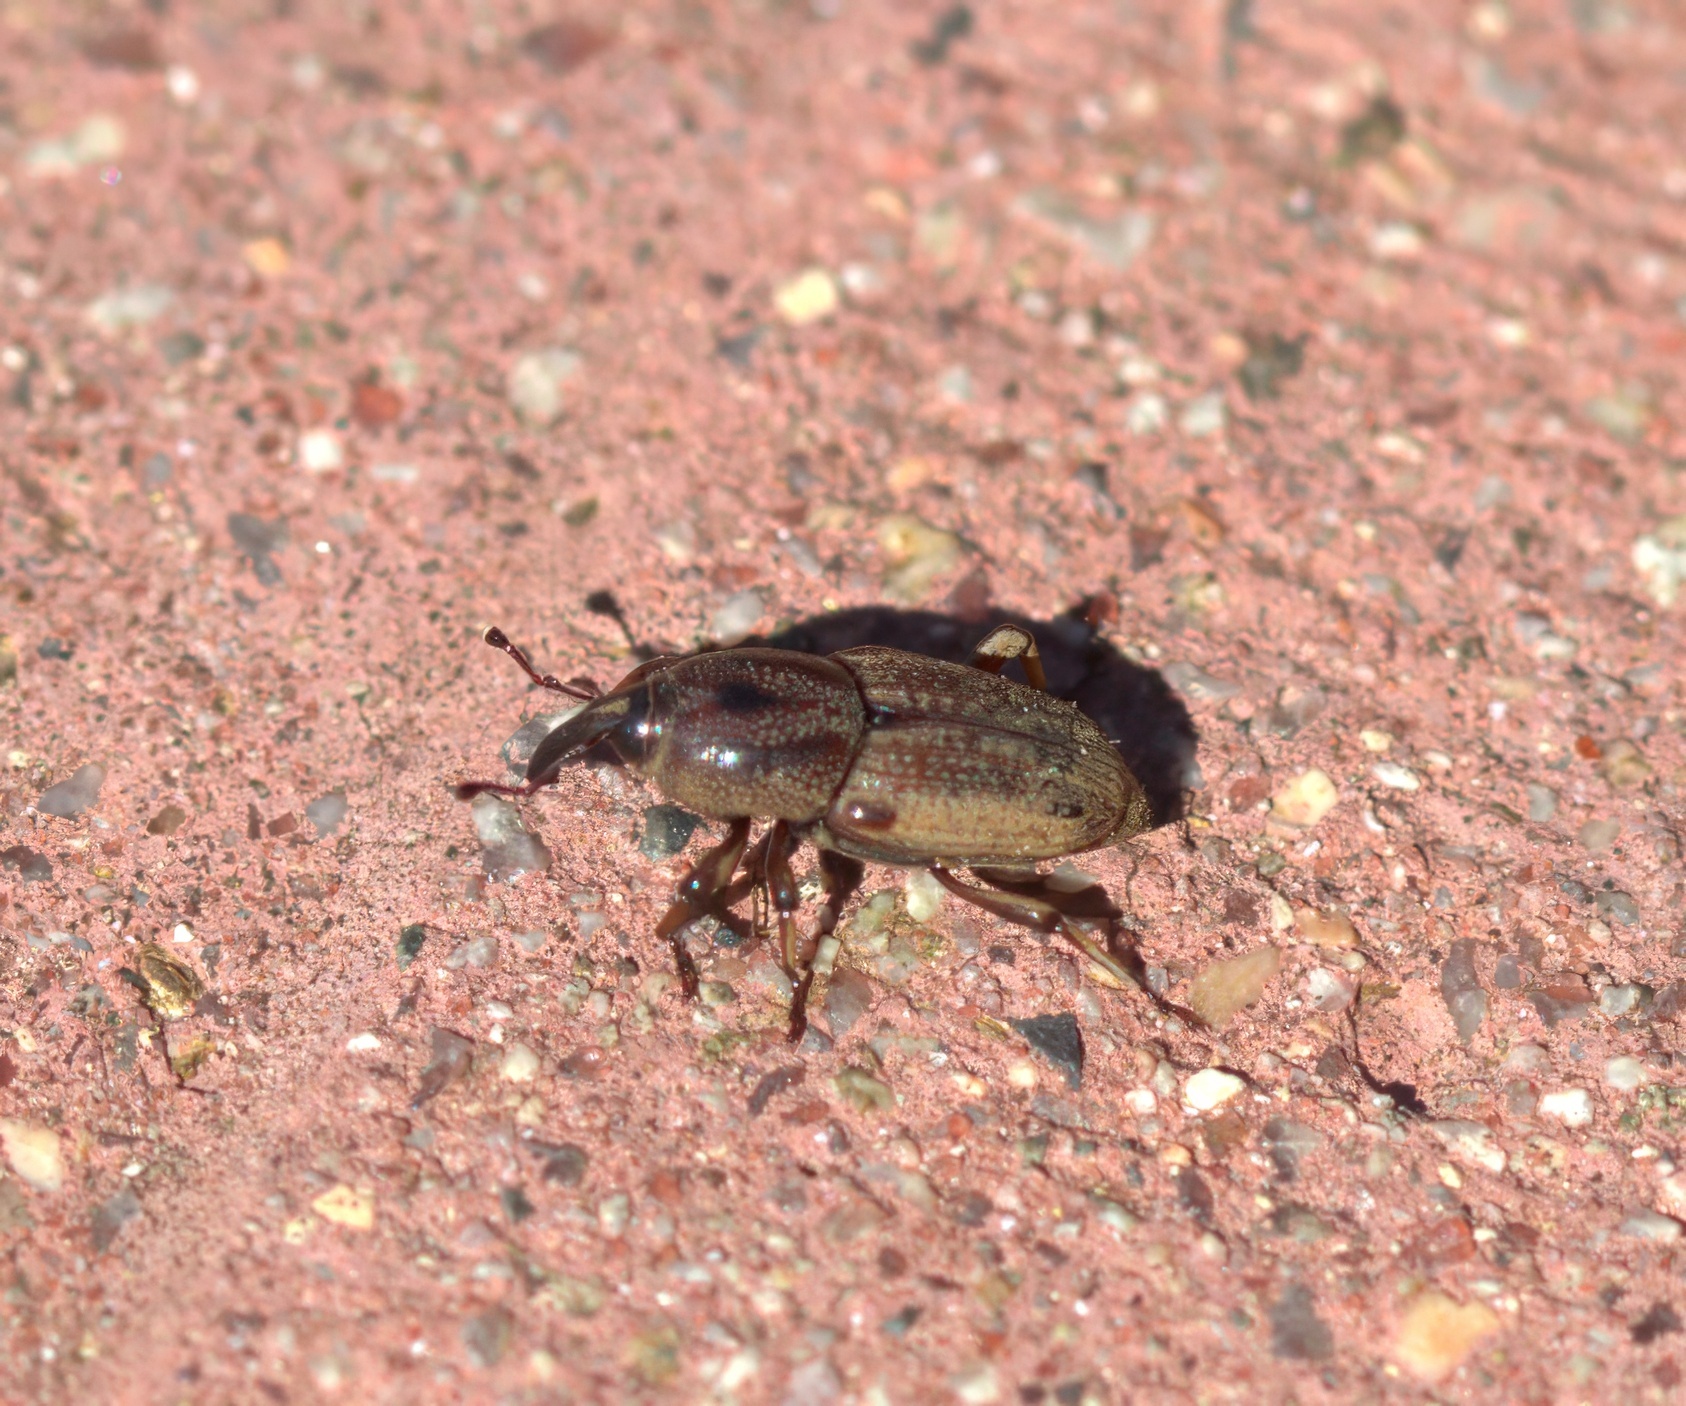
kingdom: Animalia
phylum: Arthropoda
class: Insecta
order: Coleoptera
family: Dryophthoridae
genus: Sphenophorus
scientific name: Sphenophorus venatus
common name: Hunting billbug
